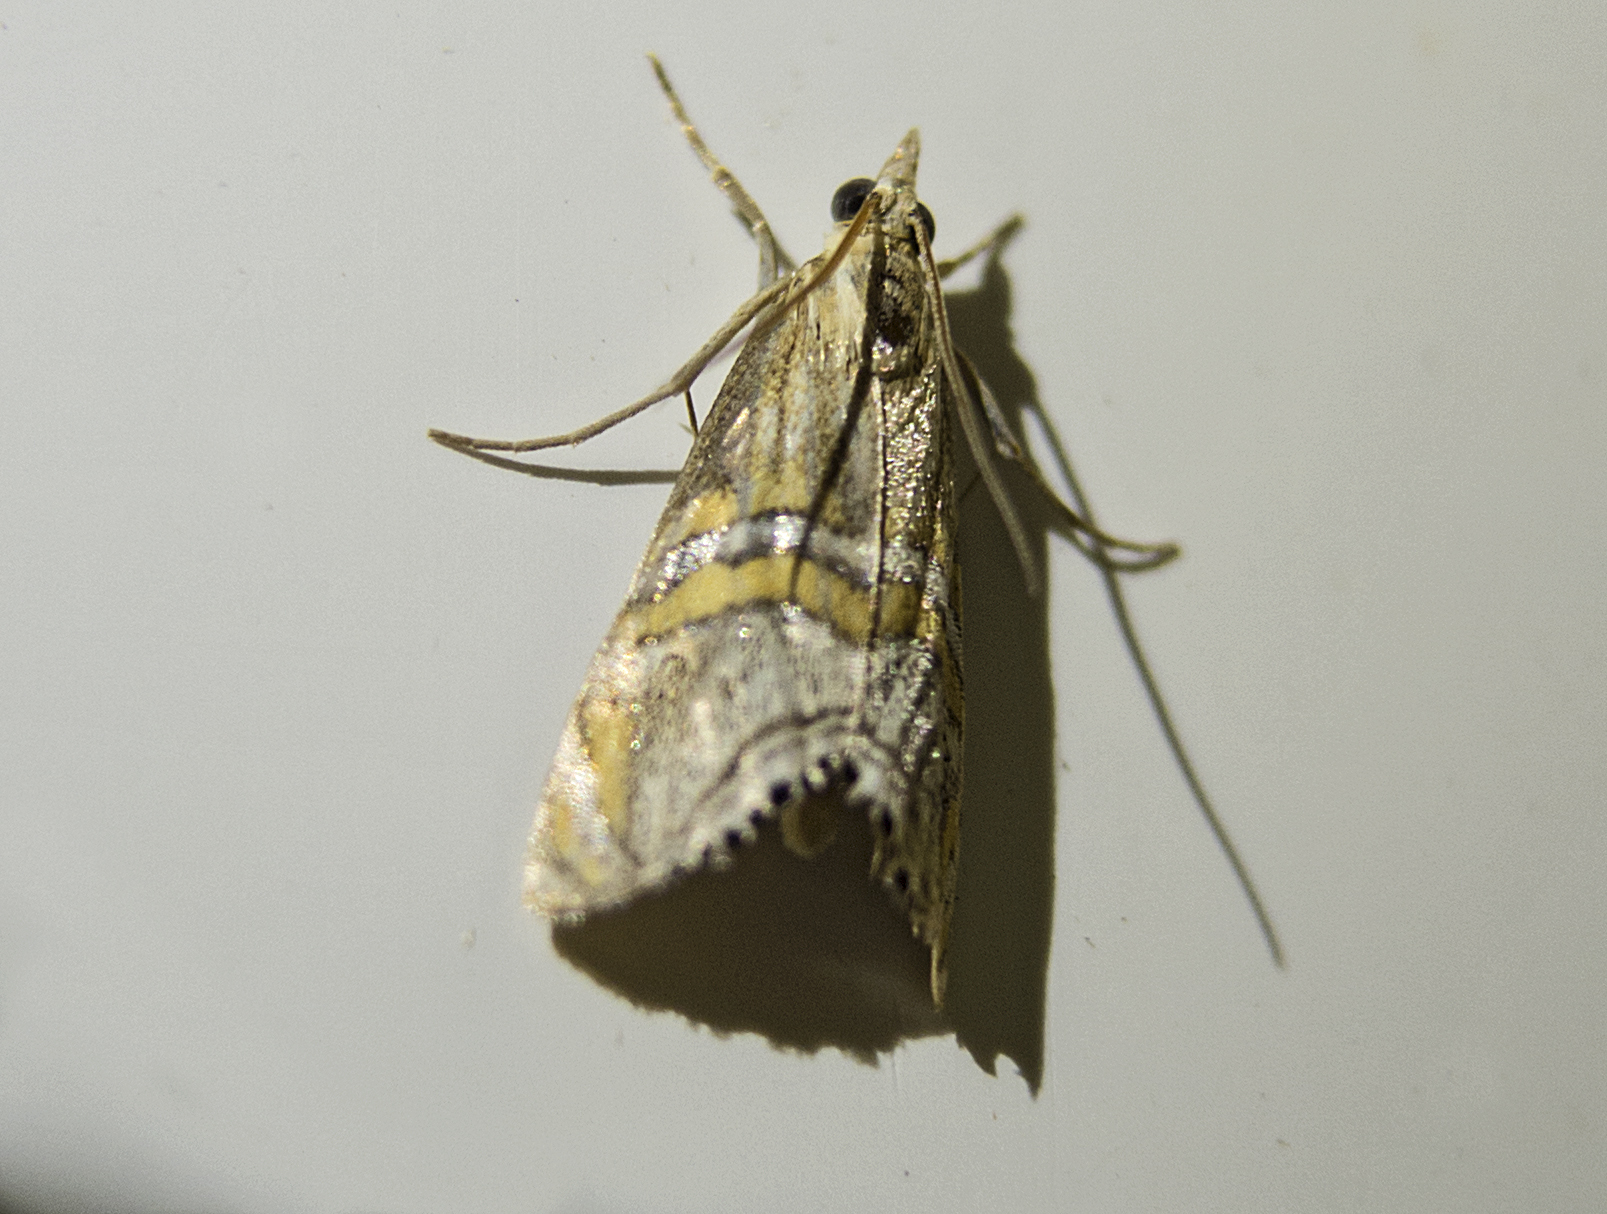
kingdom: Animalia
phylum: Arthropoda
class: Insecta
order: Lepidoptera
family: Crambidae
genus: Euchromius
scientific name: Euchromius bella
